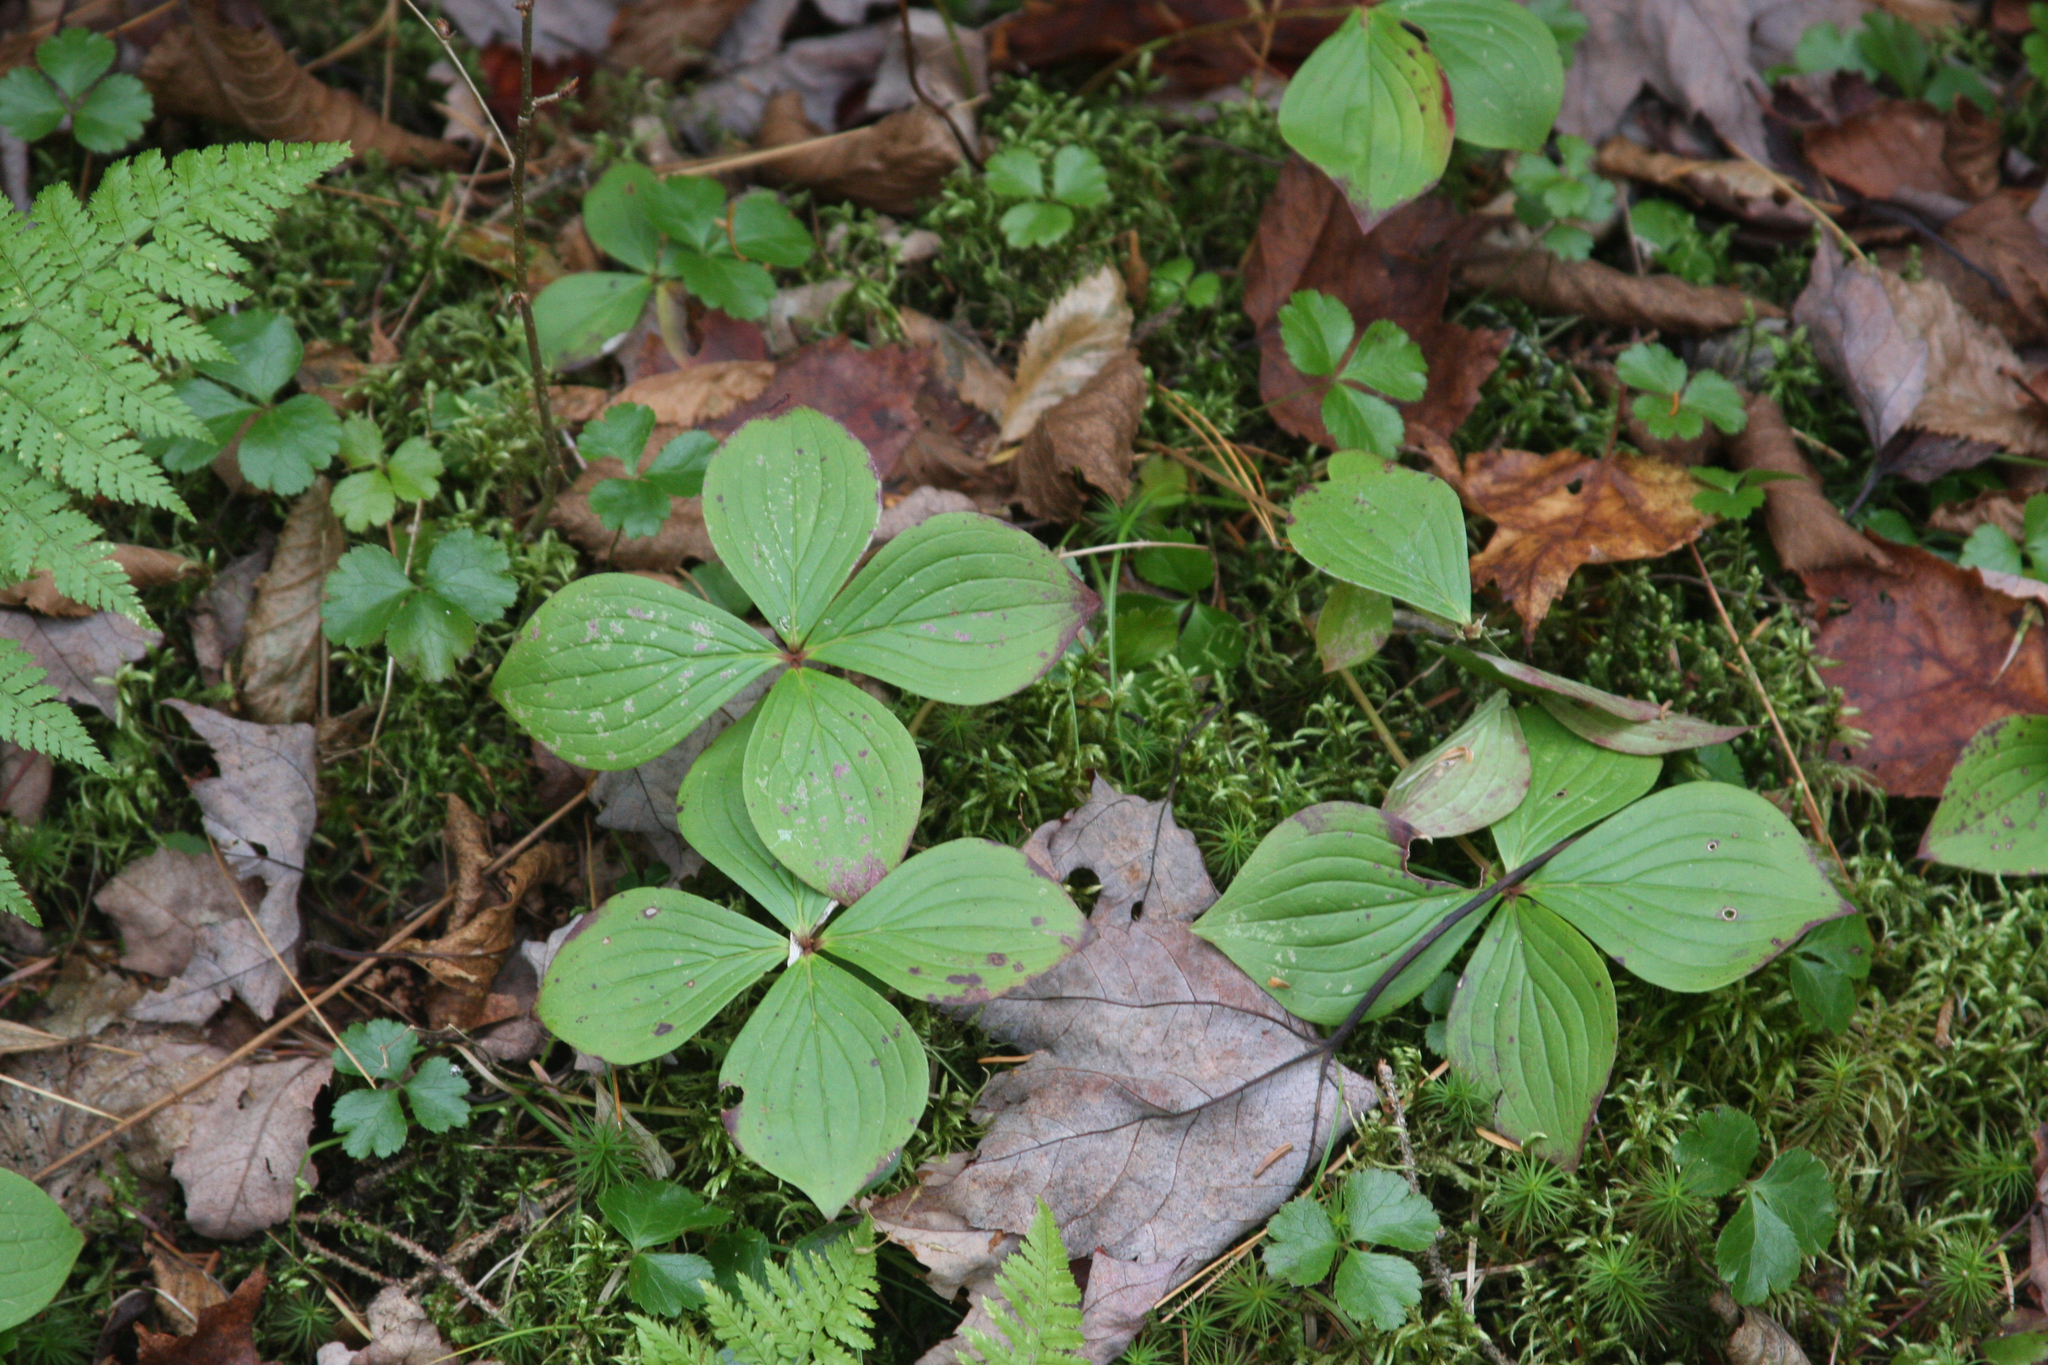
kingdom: Plantae
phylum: Tracheophyta
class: Magnoliopsida
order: Cornales
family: Cornaceae
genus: Cornus
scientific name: Cornus canadensis
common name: Creeping dogwood
